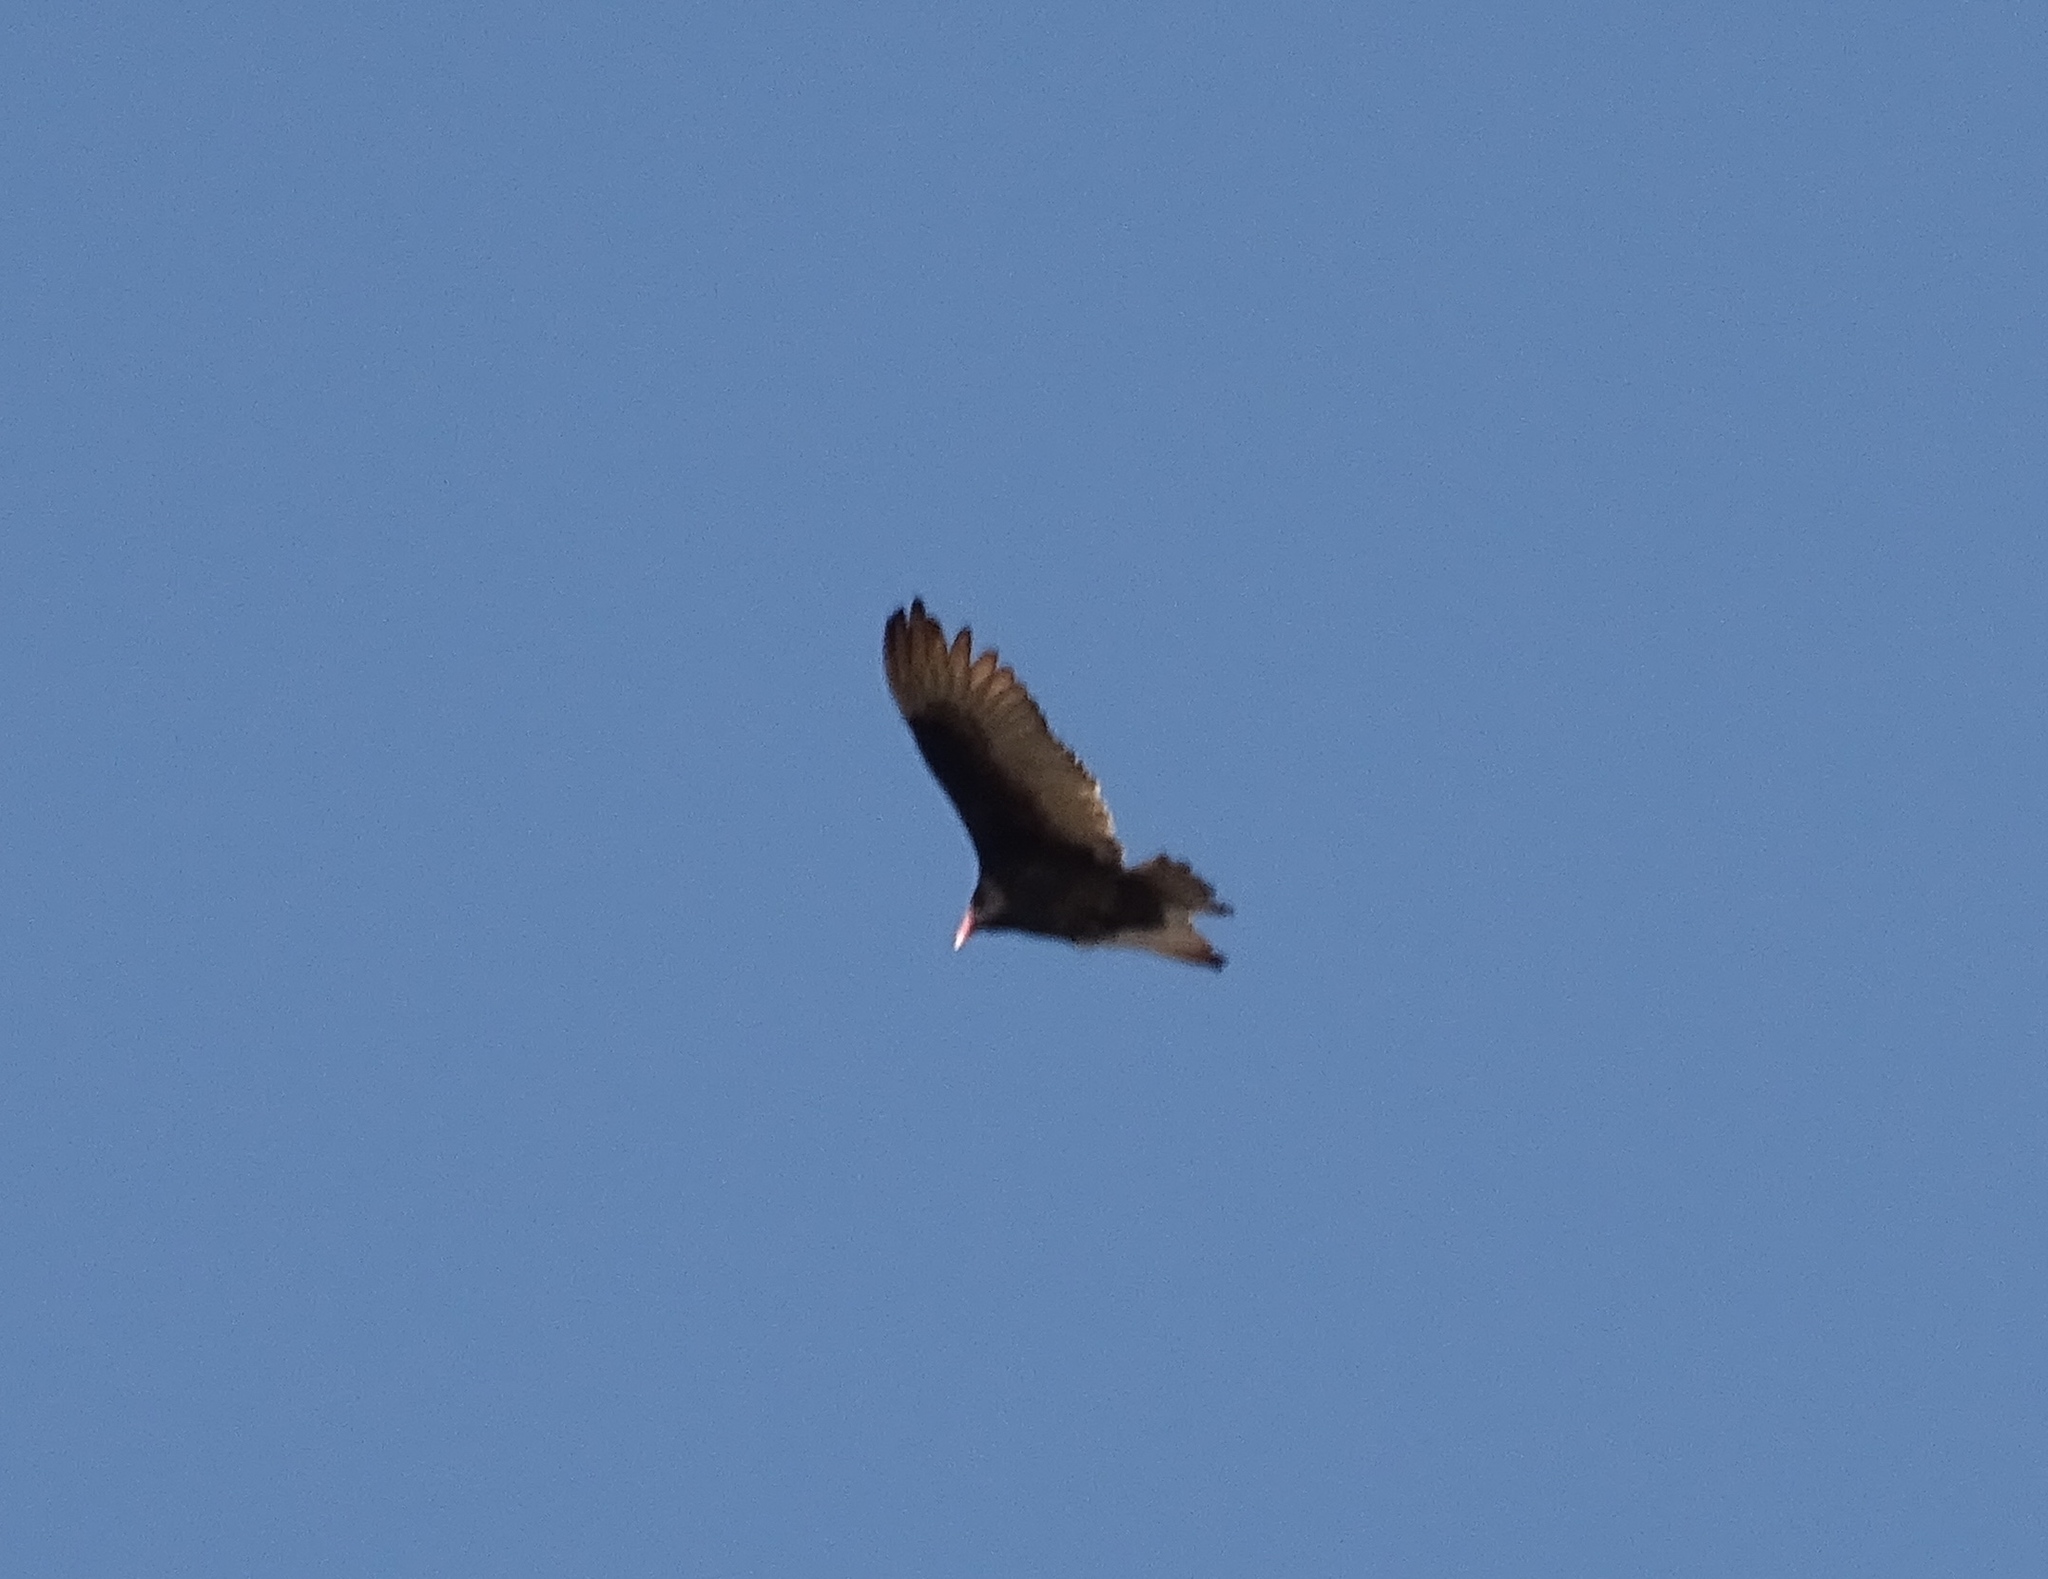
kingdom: Animalia
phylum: Chordata
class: Aves
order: Accipitriformes
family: Cathartidae
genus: Cathartes
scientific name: Cathartes aura
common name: Turkey vulture
